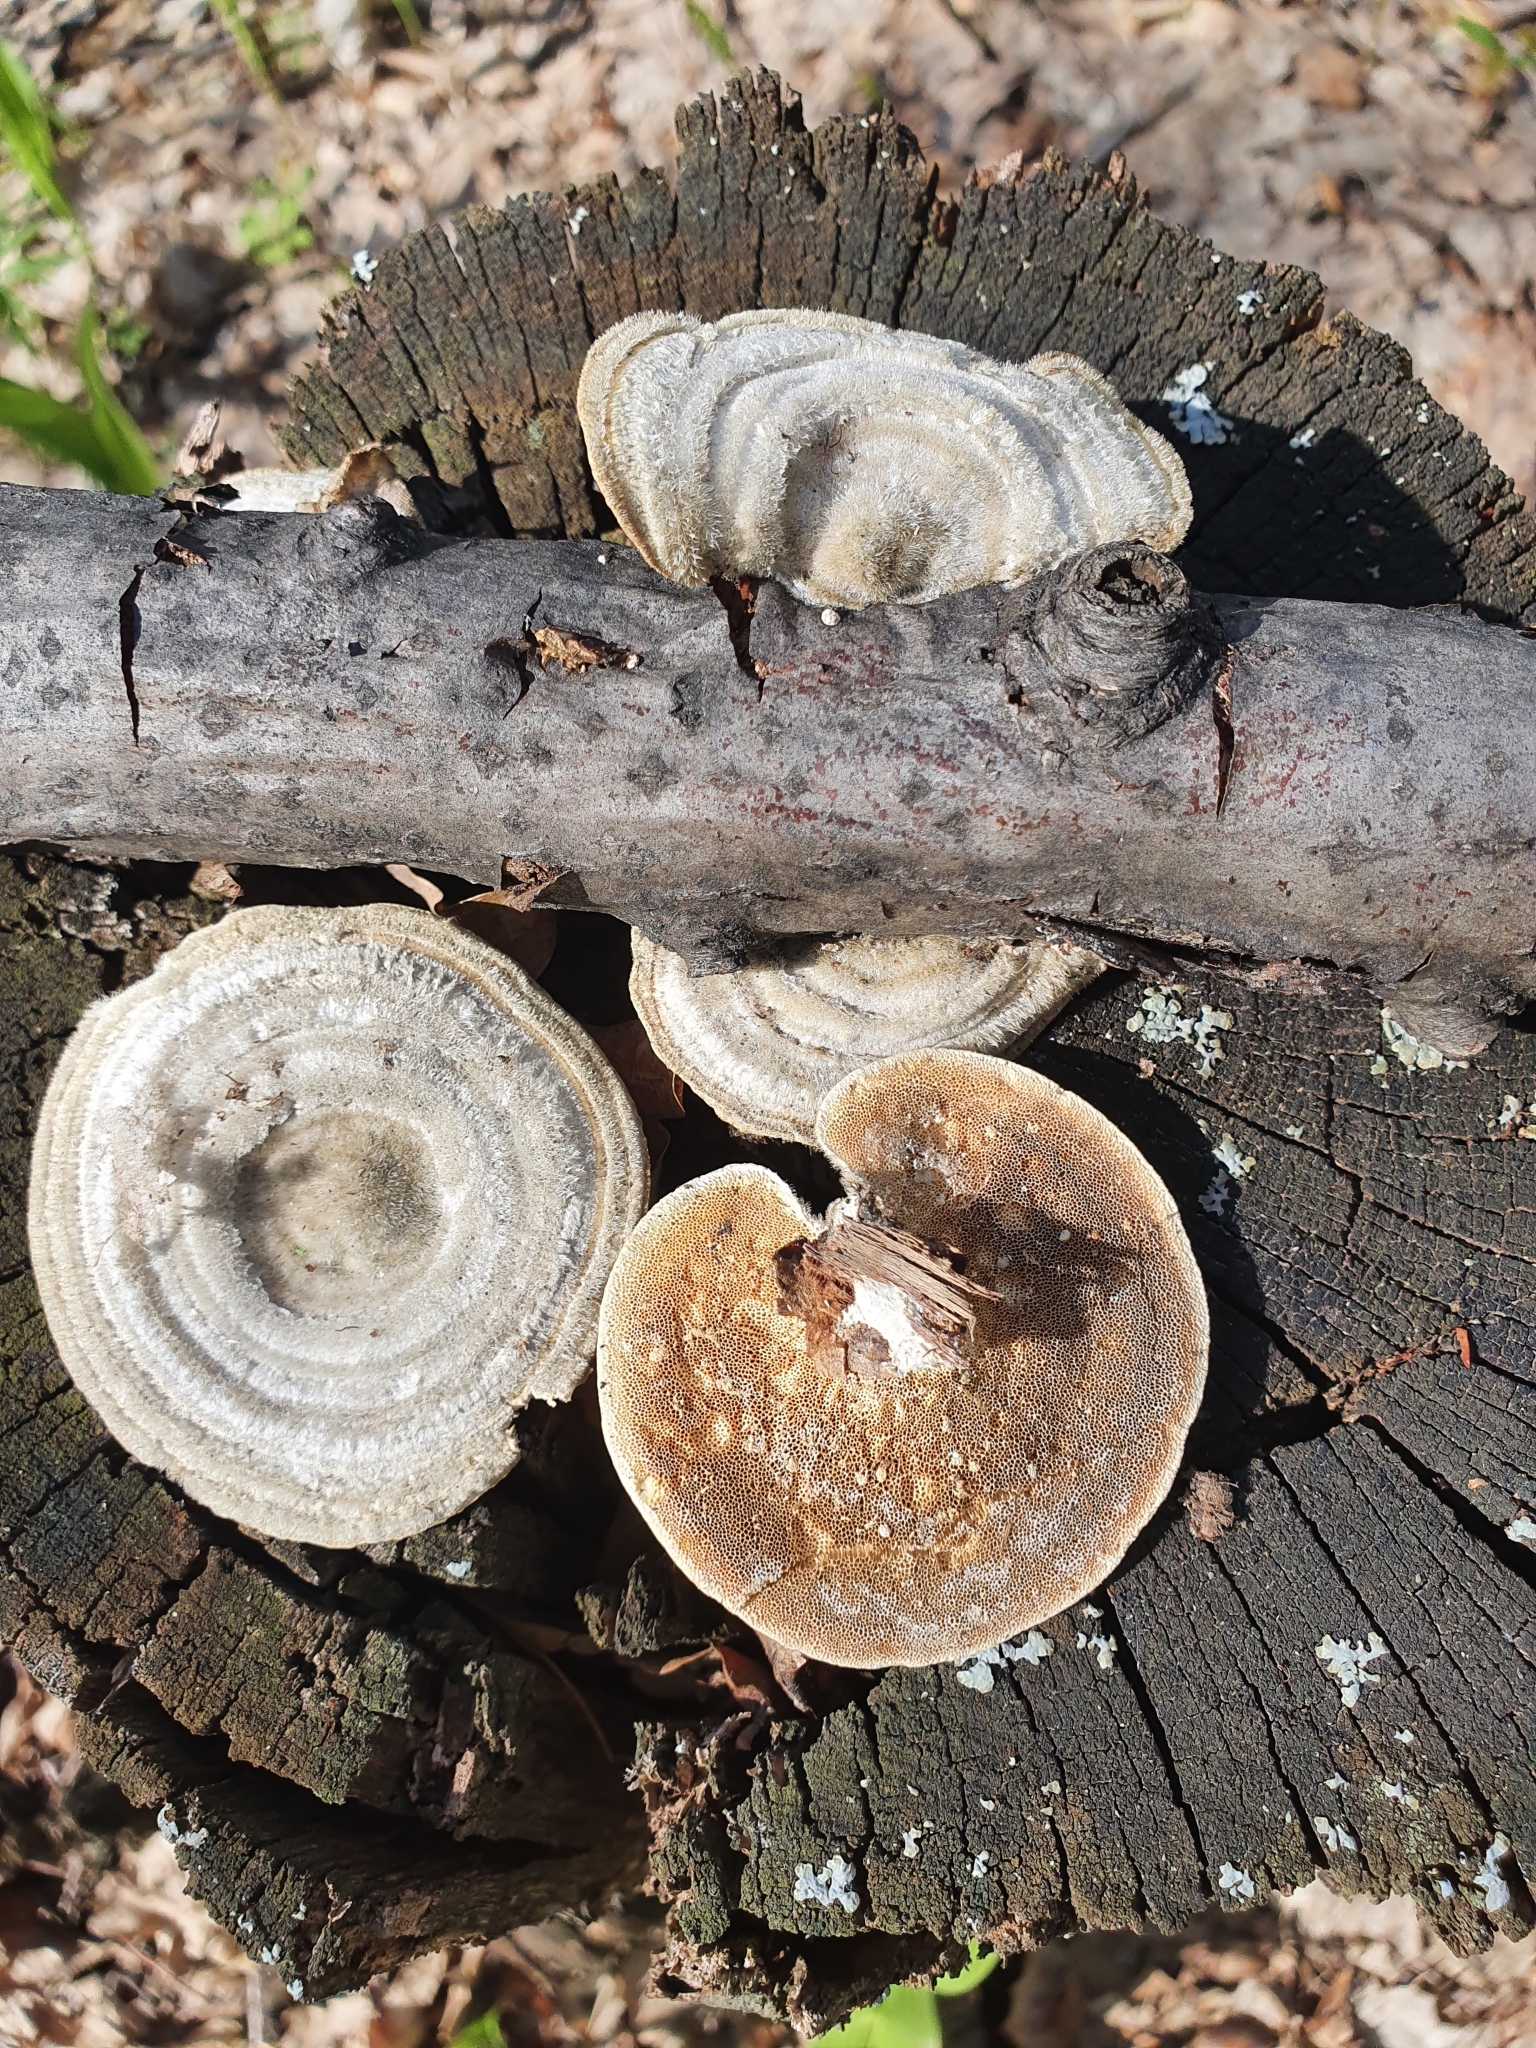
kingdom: Fungi
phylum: Basidiomycota
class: Agaricomycetes
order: Polyporales
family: Polyporaceae
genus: Trametes
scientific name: Trametes hirsuta
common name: Hairy bracket
